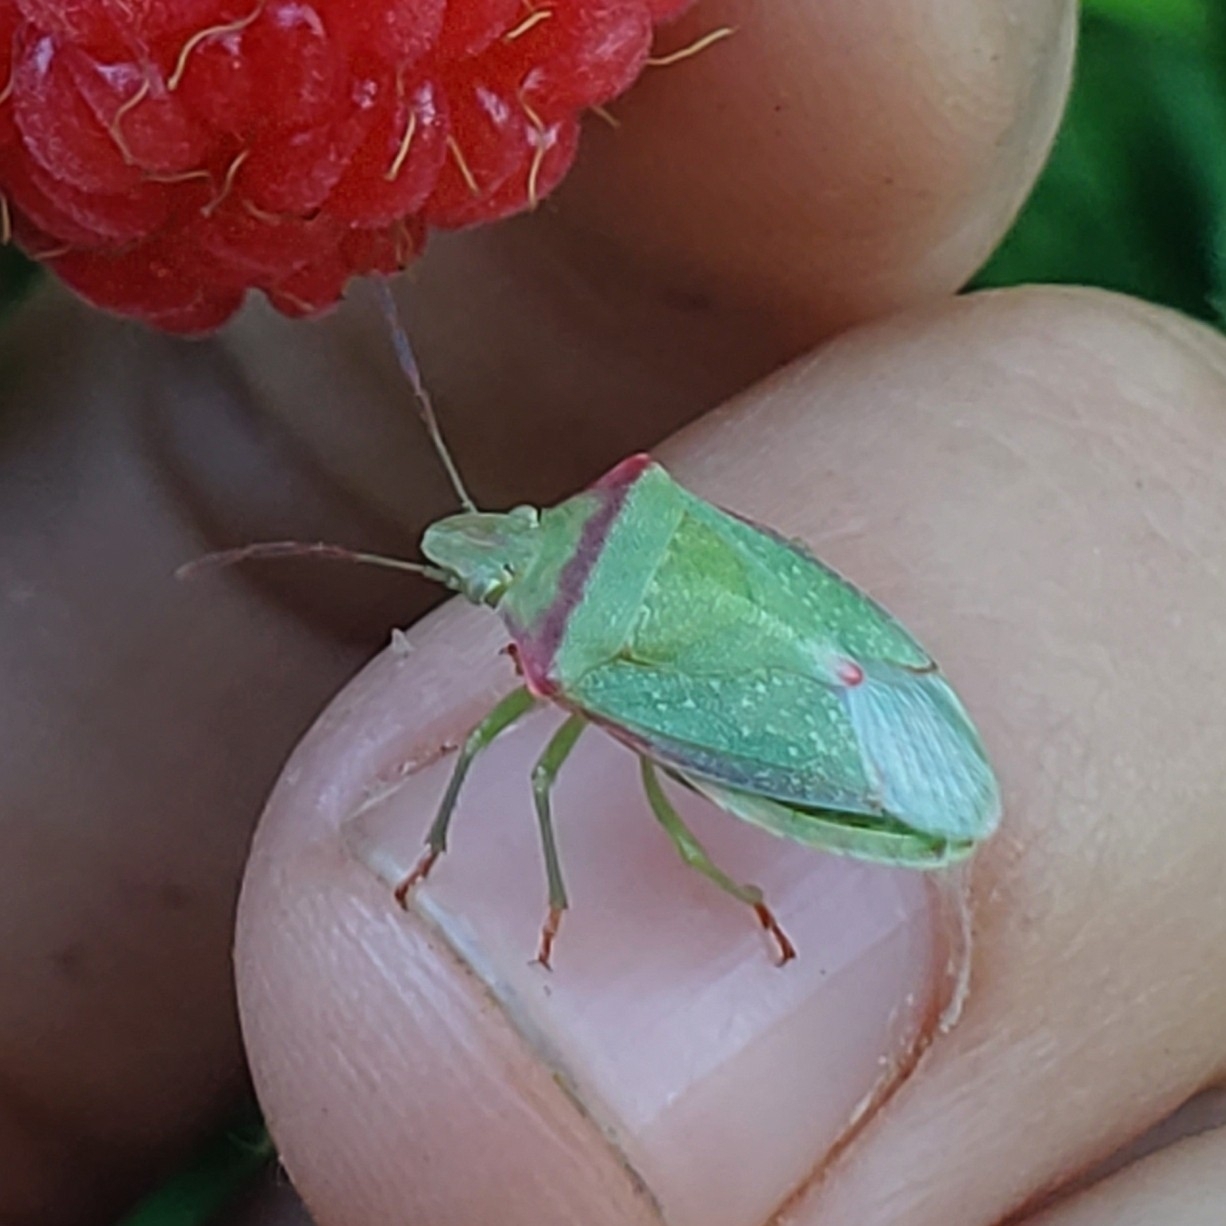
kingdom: Animalia
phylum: Arthropoda
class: Insecta
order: Hemiptera
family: Pentatomidae
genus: Thyanta
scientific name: Thyanta custator
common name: Stink bug
